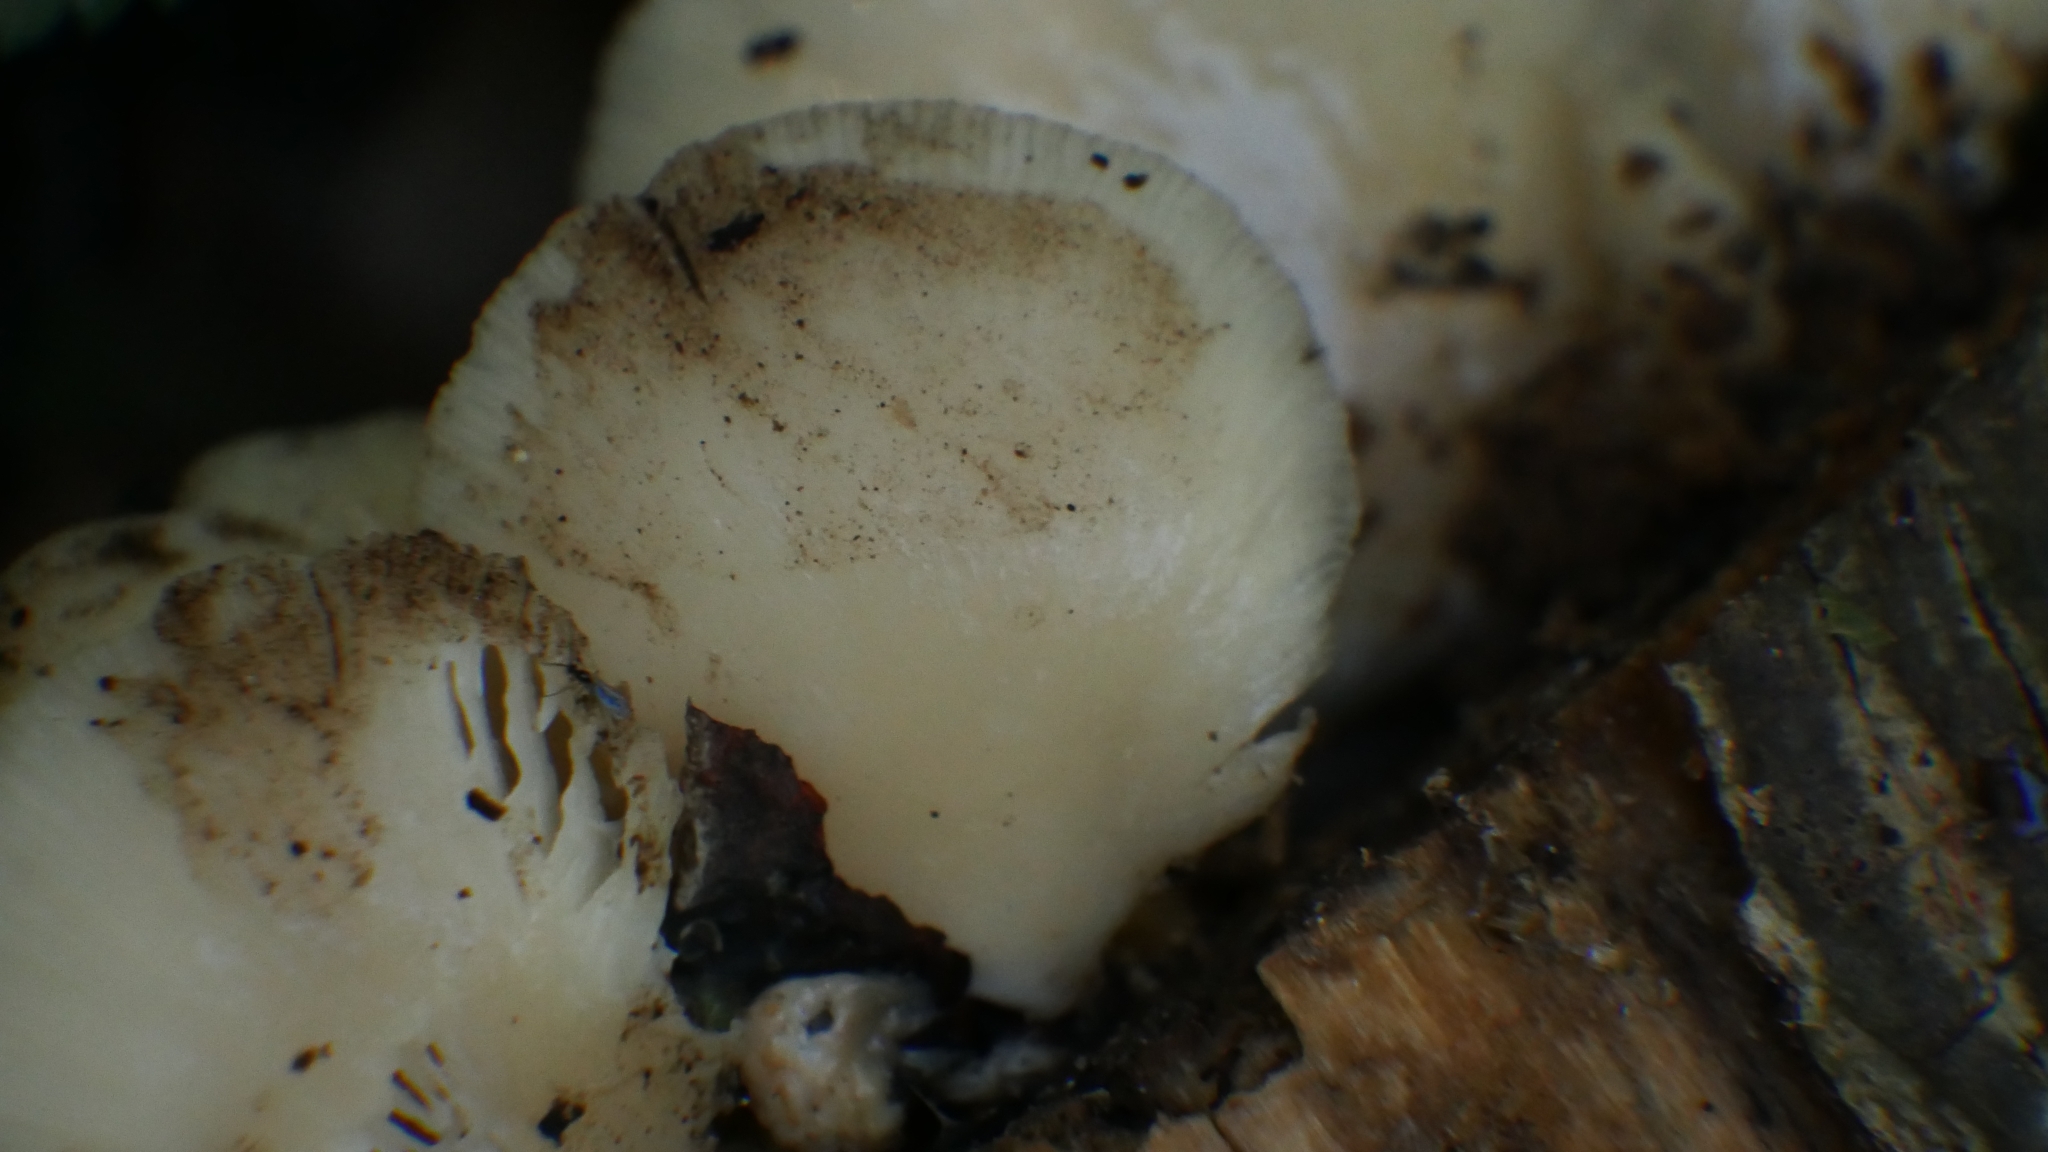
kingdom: Fungi
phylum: Basidiomycota
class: Agaricomycetes
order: Polyporales
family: Incrustoporiaceae
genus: Tyromyces
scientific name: Tyromyces chioneus
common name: White cheese polypore
